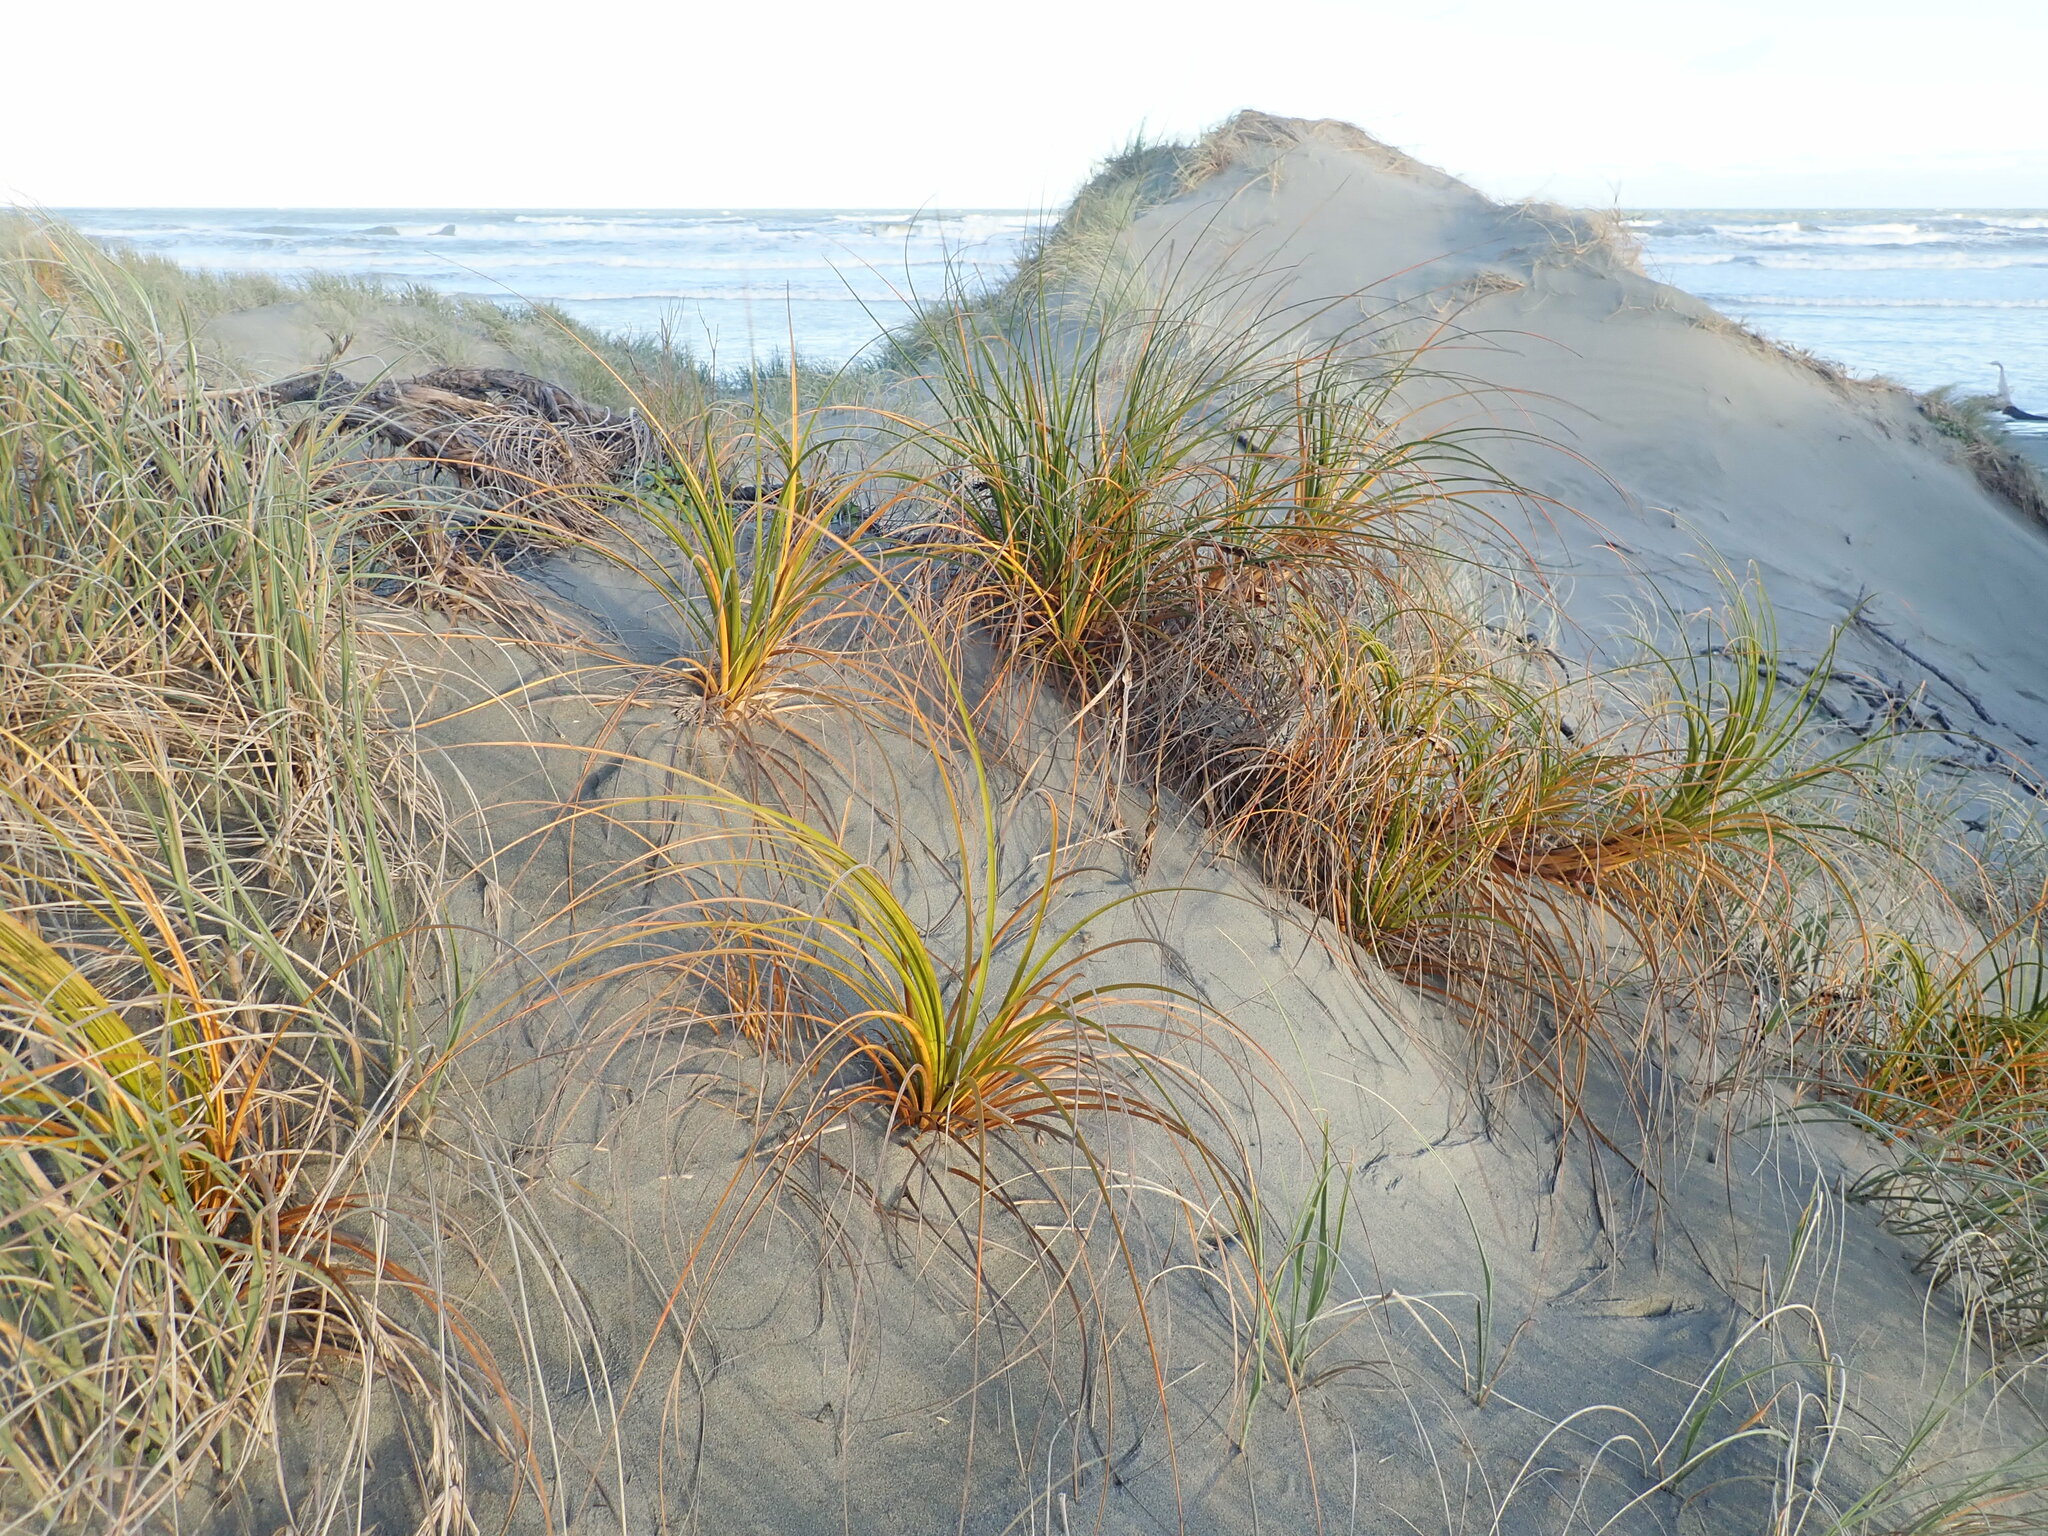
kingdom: Plantae
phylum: Tracheophyta
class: Liliopsida
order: Poales
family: Cyperaceae
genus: Ficinia
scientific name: Ficinia spiralis
